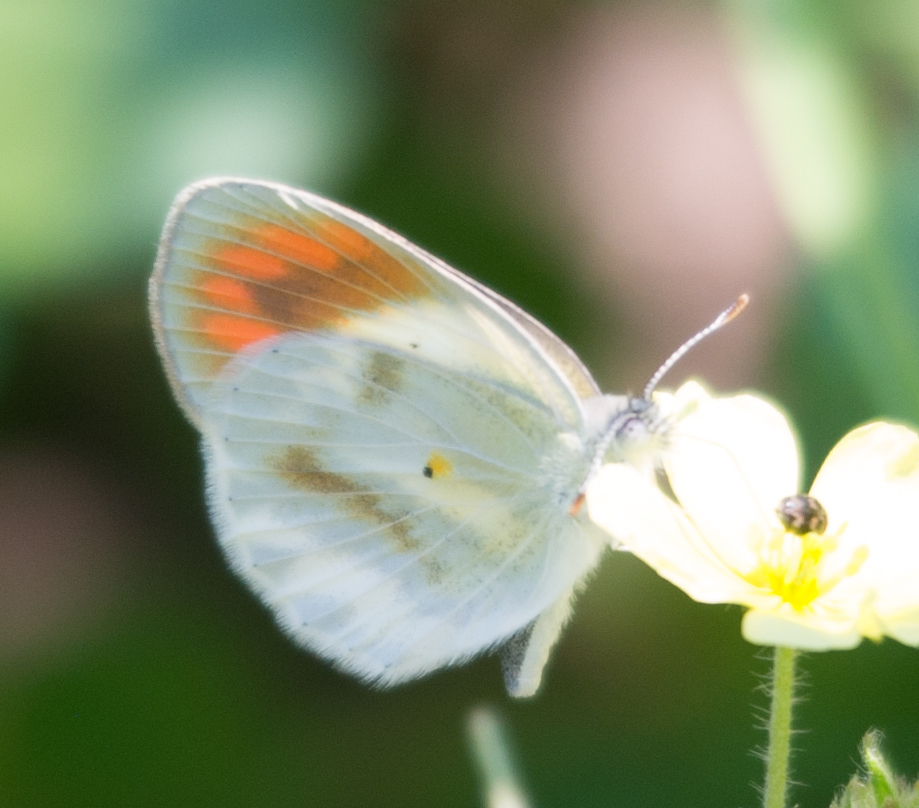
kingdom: Animalia
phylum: Arthropoda
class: Insecta
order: Lepidoptera
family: Pieridae
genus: Colotis
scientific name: Colotis euippe
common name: Round-winged orange tip
